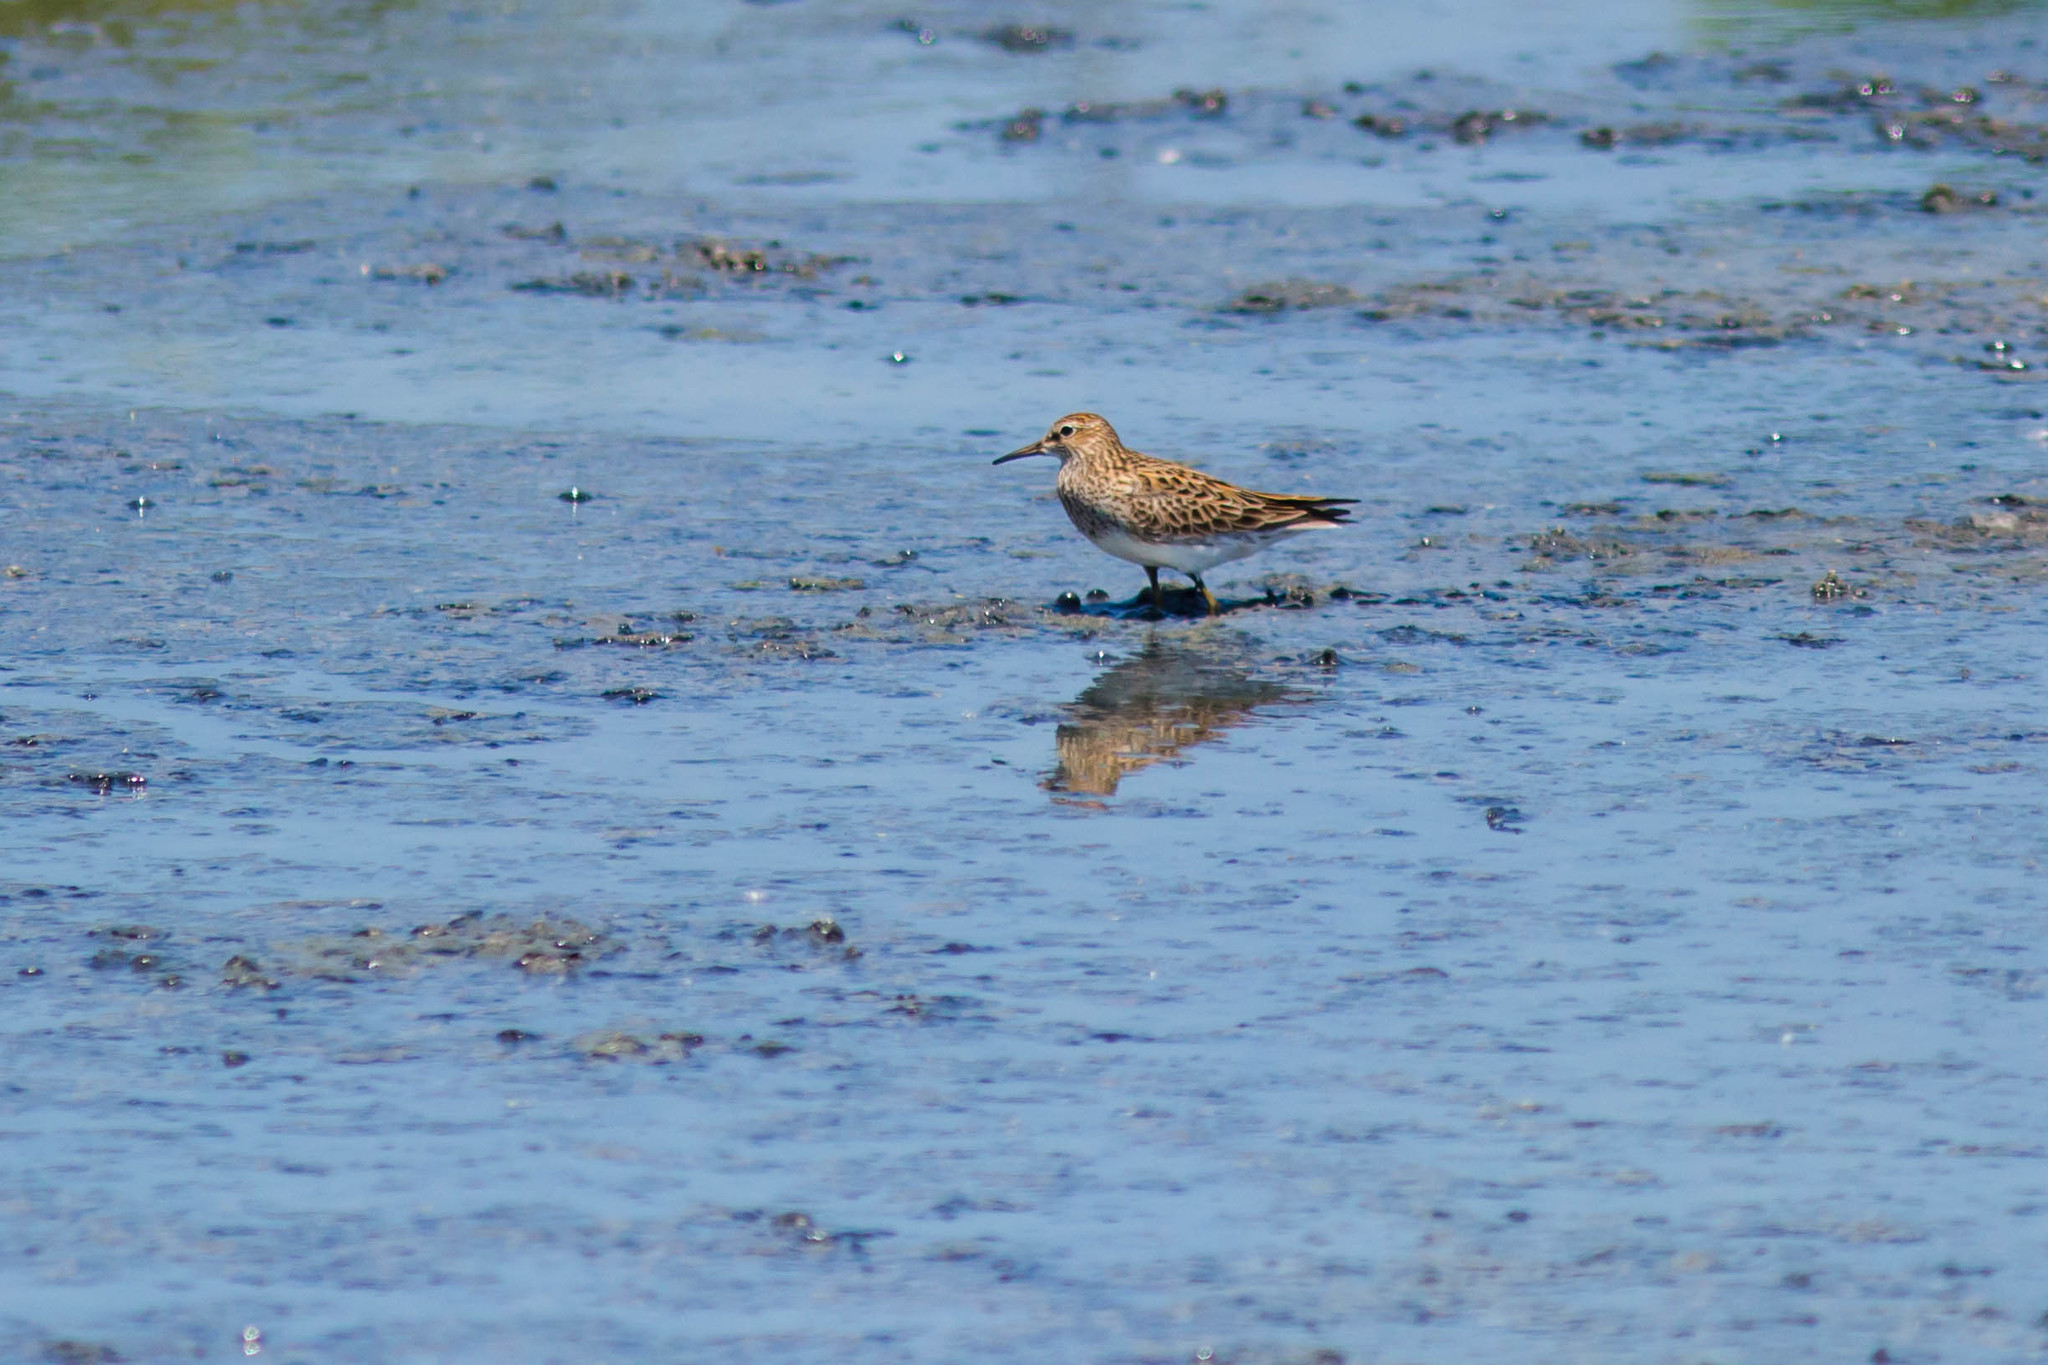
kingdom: Animalia
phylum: Chordata
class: Aves
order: Charadriiformes
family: Scolopacidae
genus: Calidris
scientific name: Calidris melanotos
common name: Pectoral sandpiper
